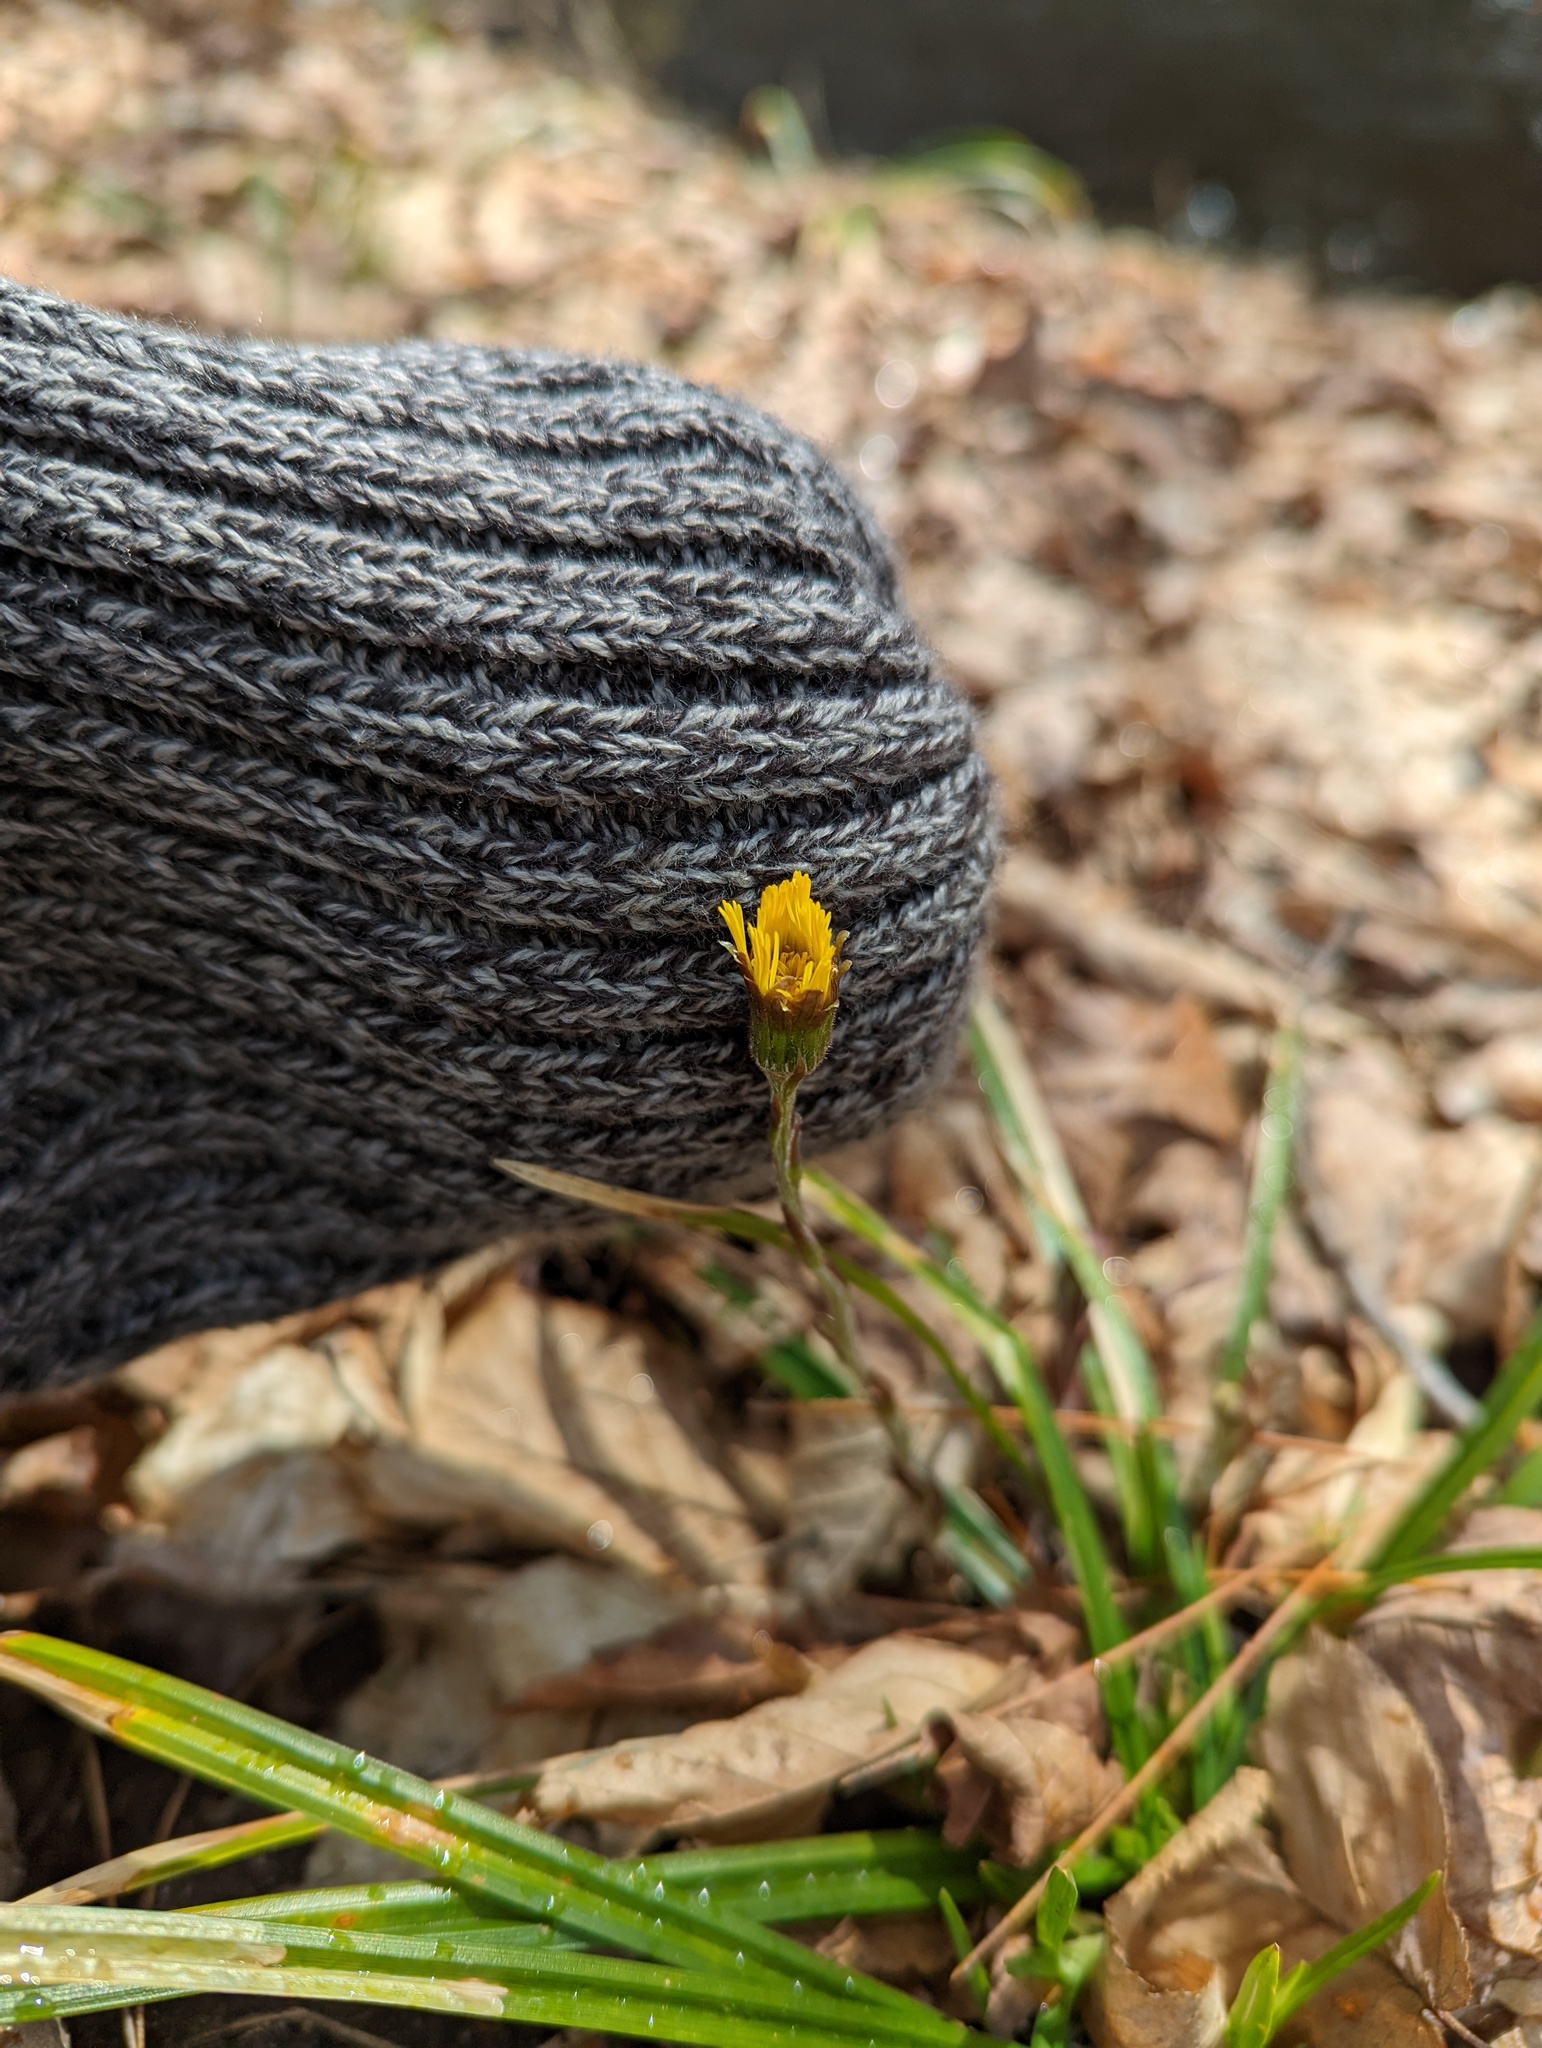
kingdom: Plantae
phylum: Tracheophyta
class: Magnoliopsida
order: Asterales
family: Asteraceae
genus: Tussilago
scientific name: Tussilago farfara
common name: Coltsfoot
